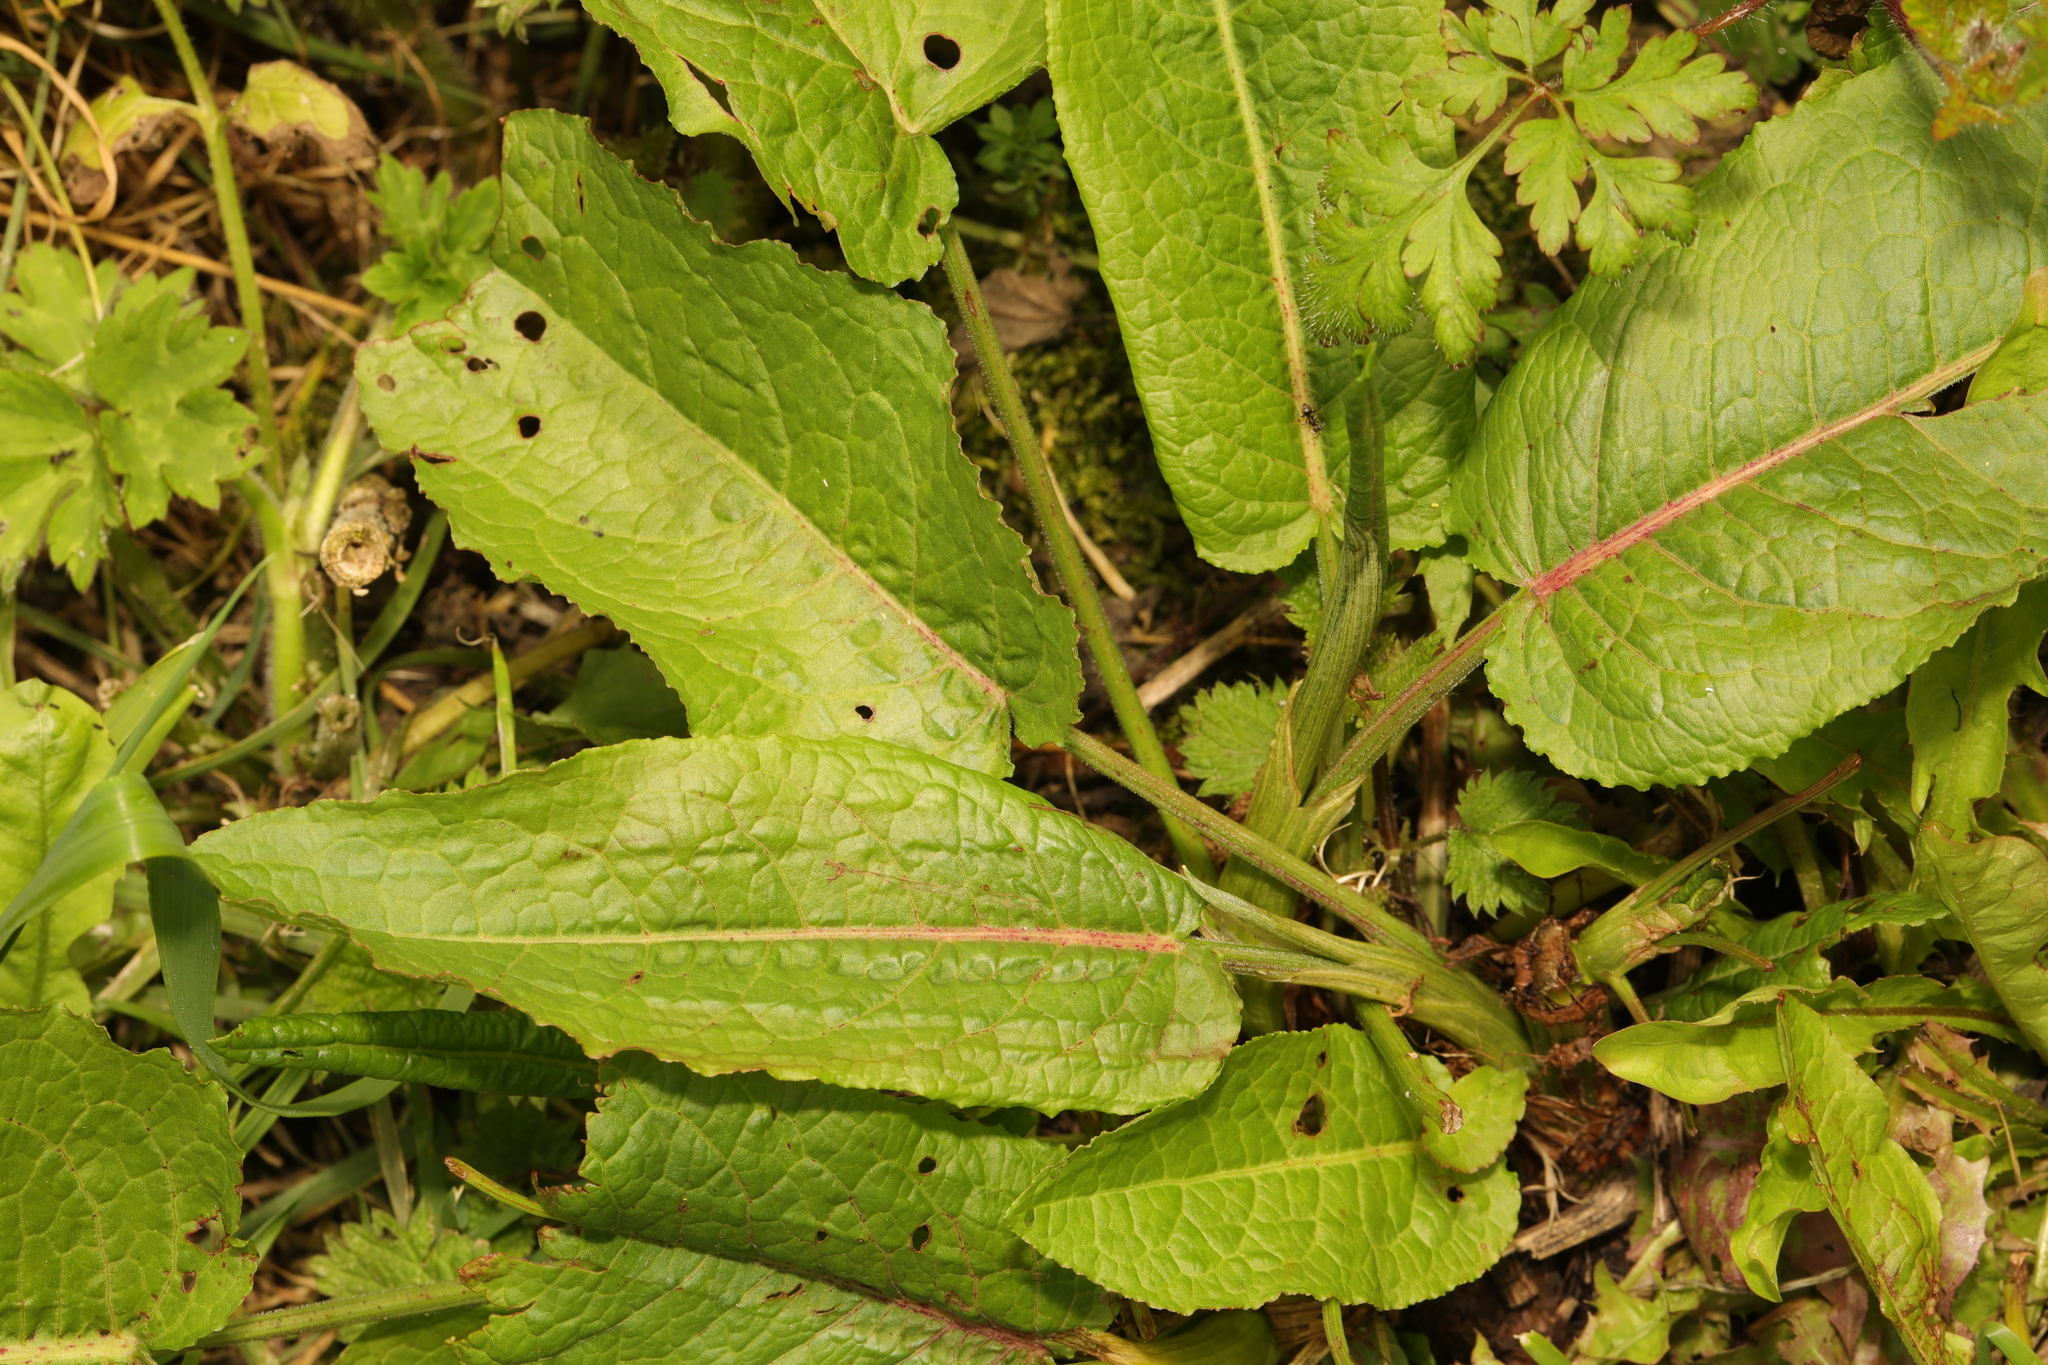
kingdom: Plantae
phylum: Tracheophyta
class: Magnoliopsida
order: Caryophyllales
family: Polygonaceae
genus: Rumex
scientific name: Rumex obtusifolius
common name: Bitter dock
